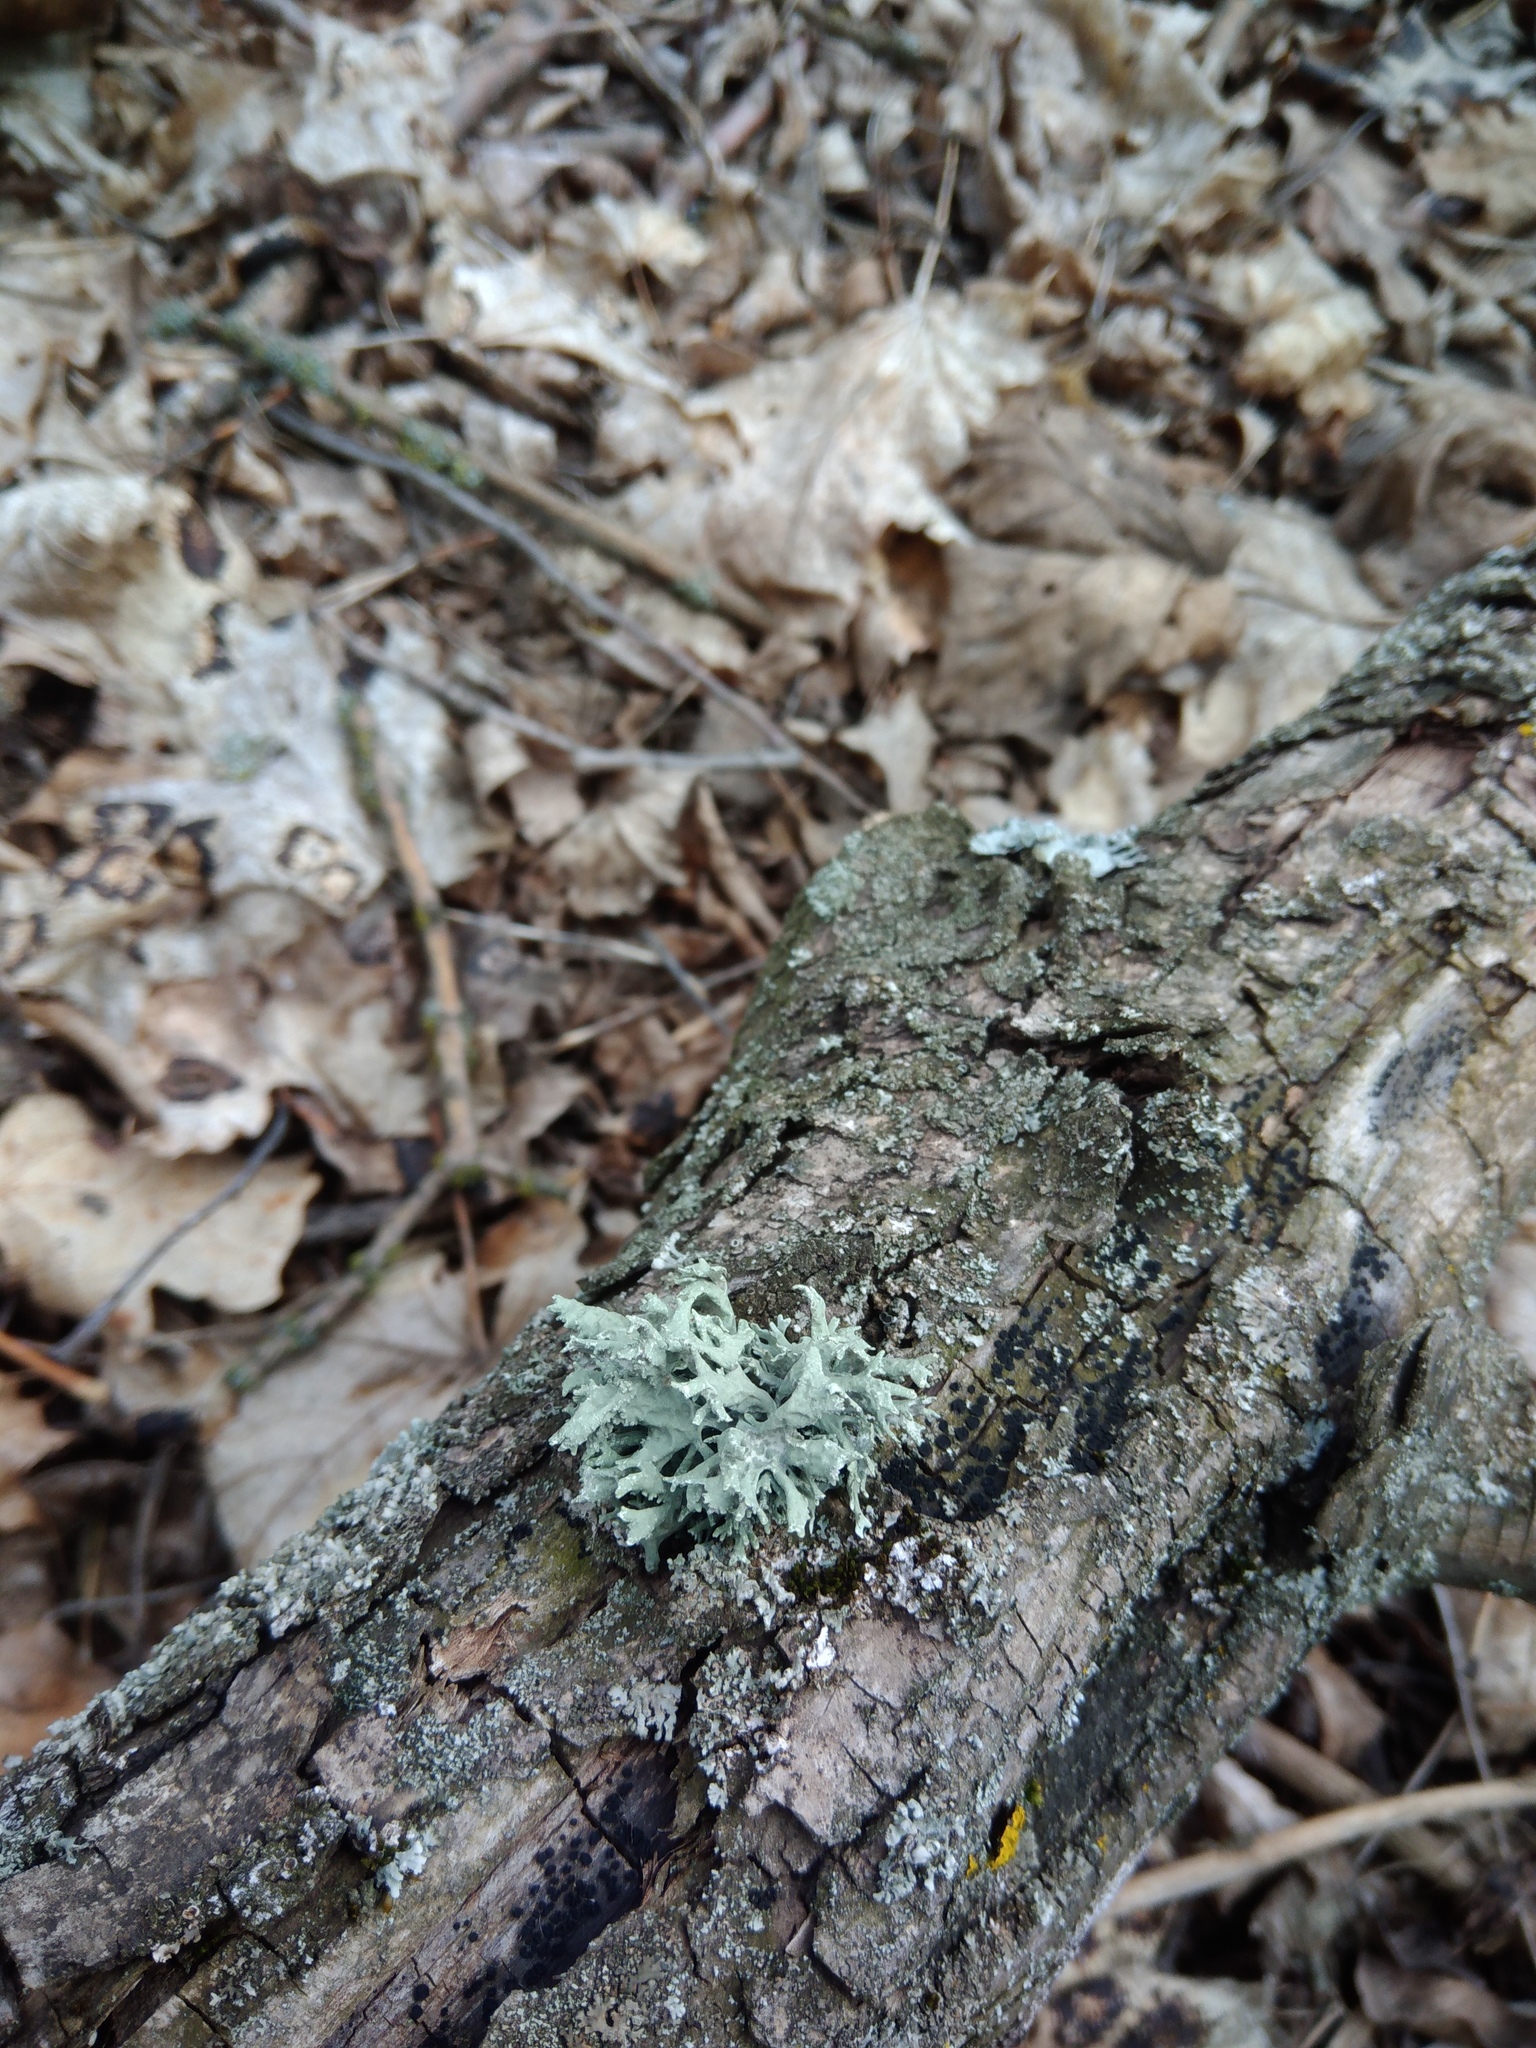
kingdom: Fungi
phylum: Ascomycota
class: Lecanoromycetes
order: Lecanorales
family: Parmeliaceae
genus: Evernia
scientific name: Evernia prunastri
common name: Oak moss
